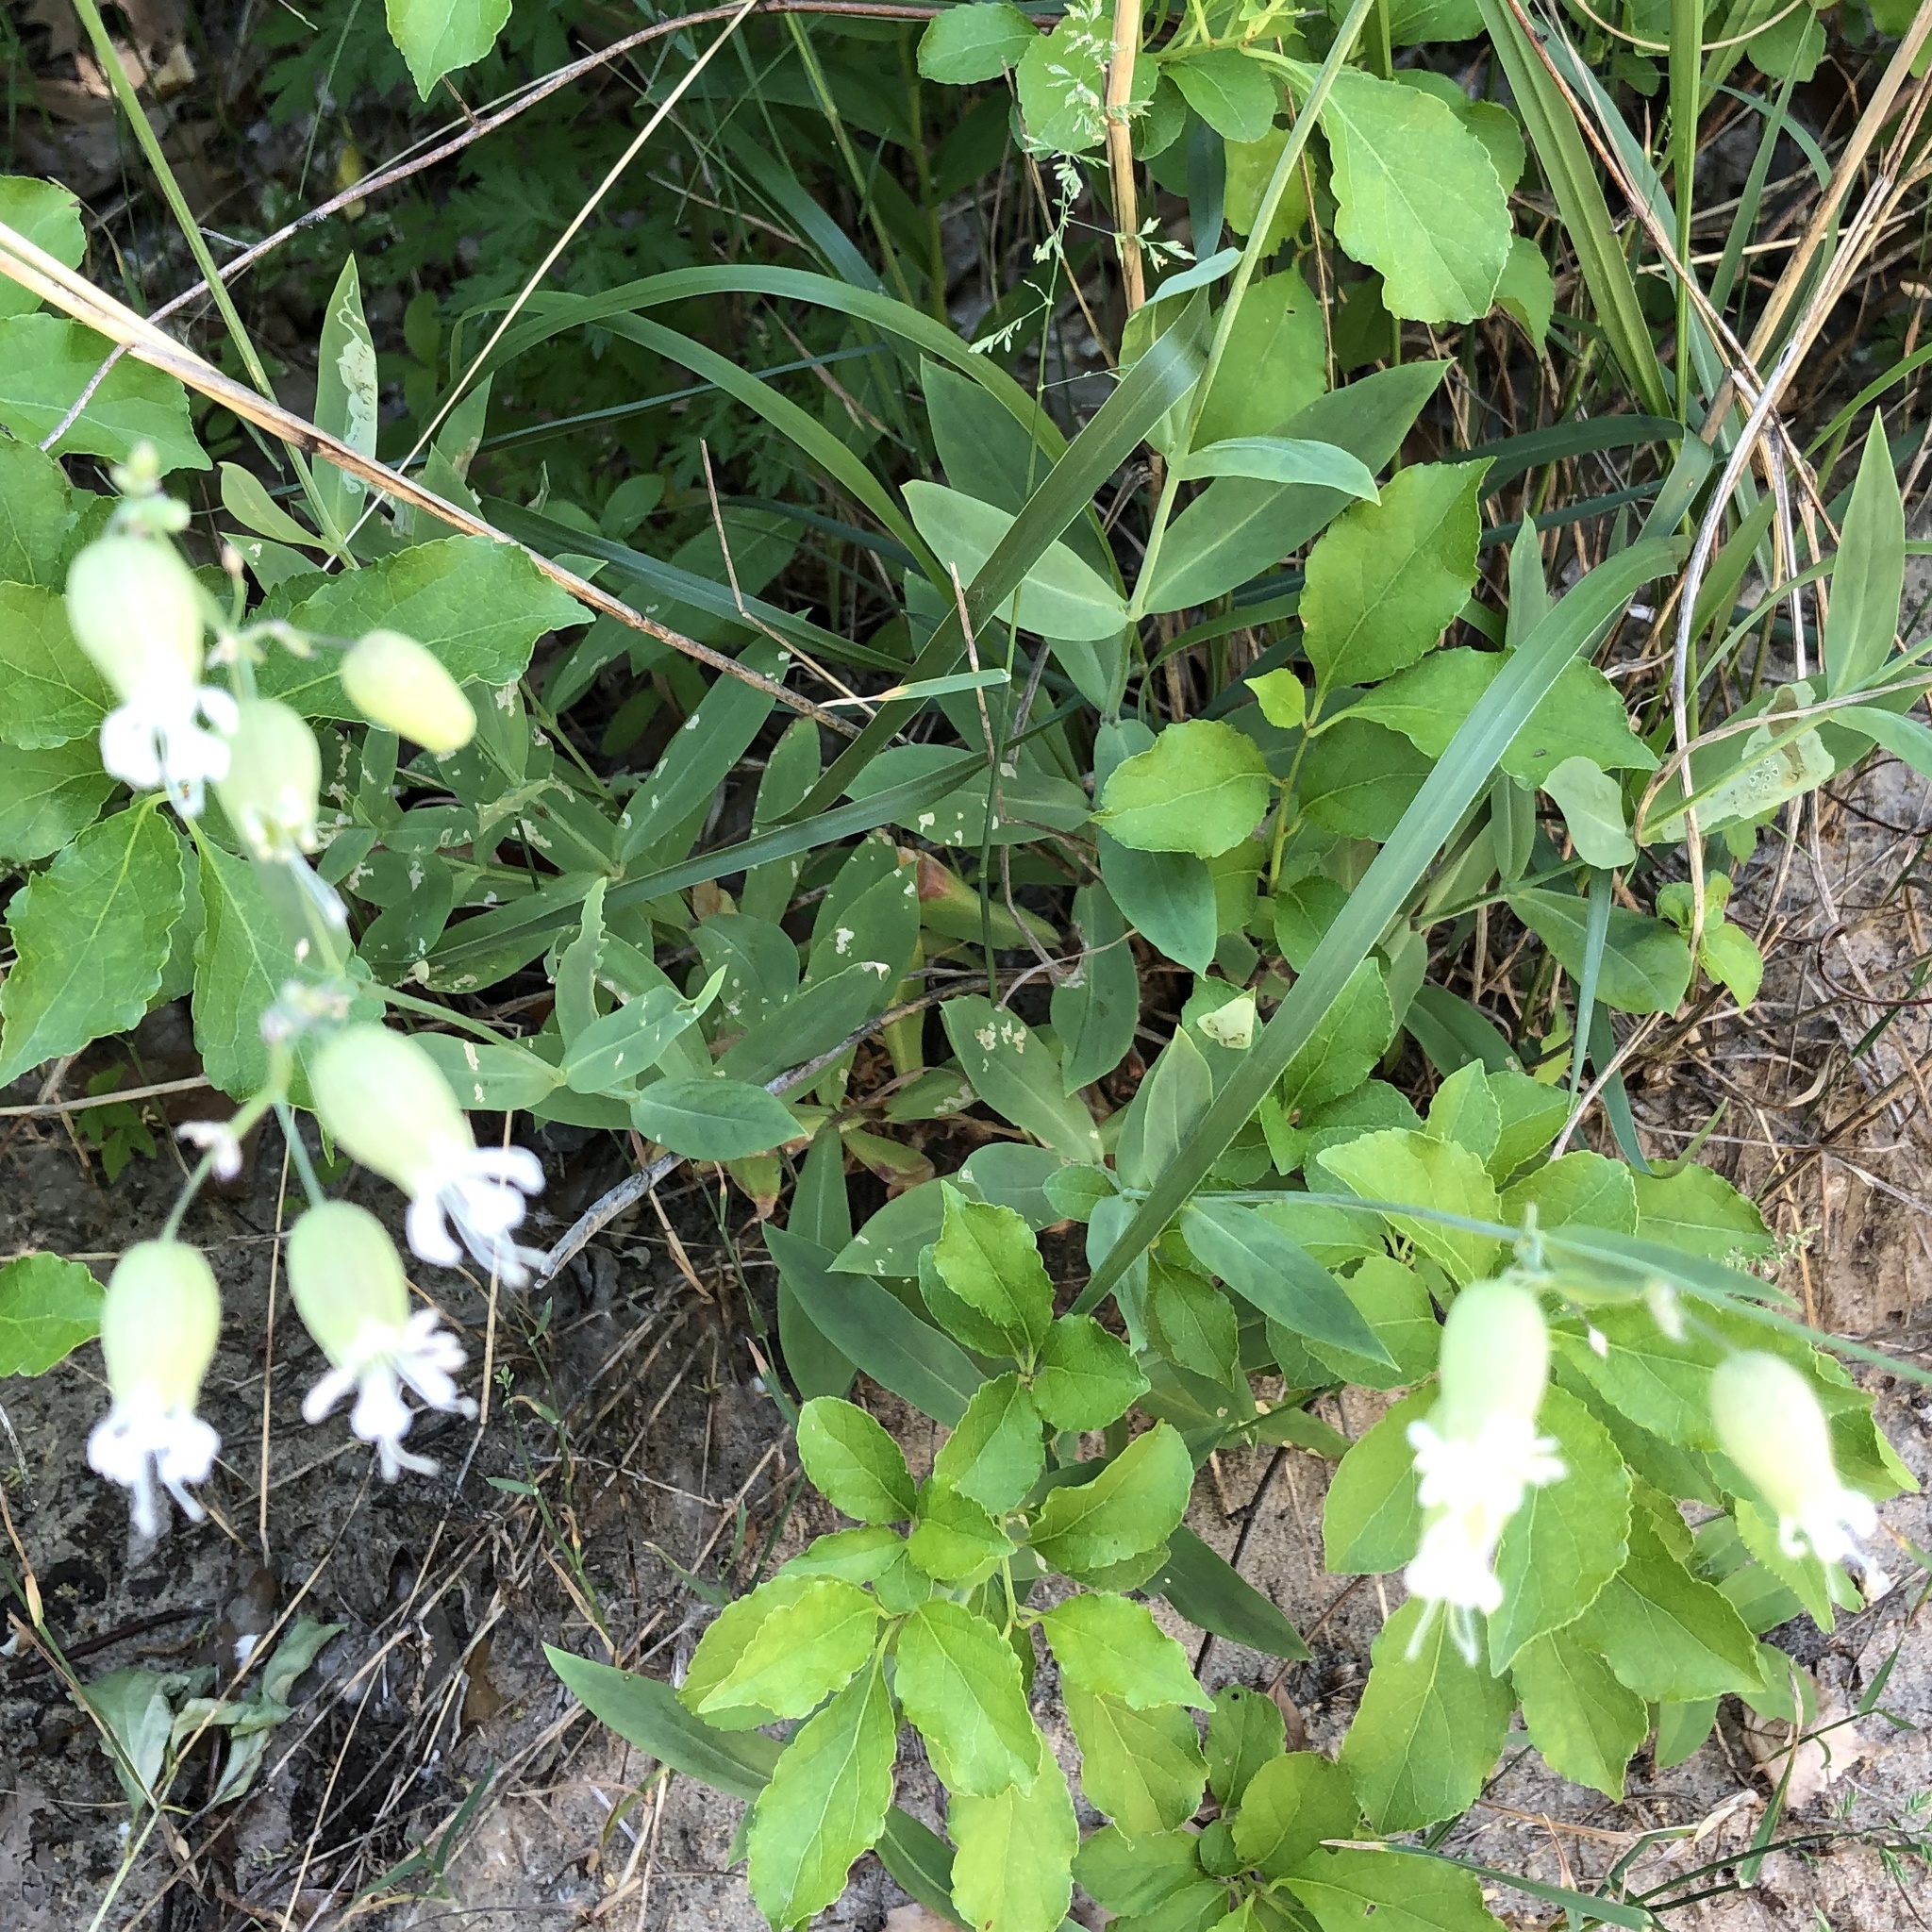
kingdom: Plantae
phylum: Tracheophyta
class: Magnoliopsida
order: Caryophyllales
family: Caryophyllaceae
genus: Silene
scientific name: Silene vulgaris
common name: Bladder campion
